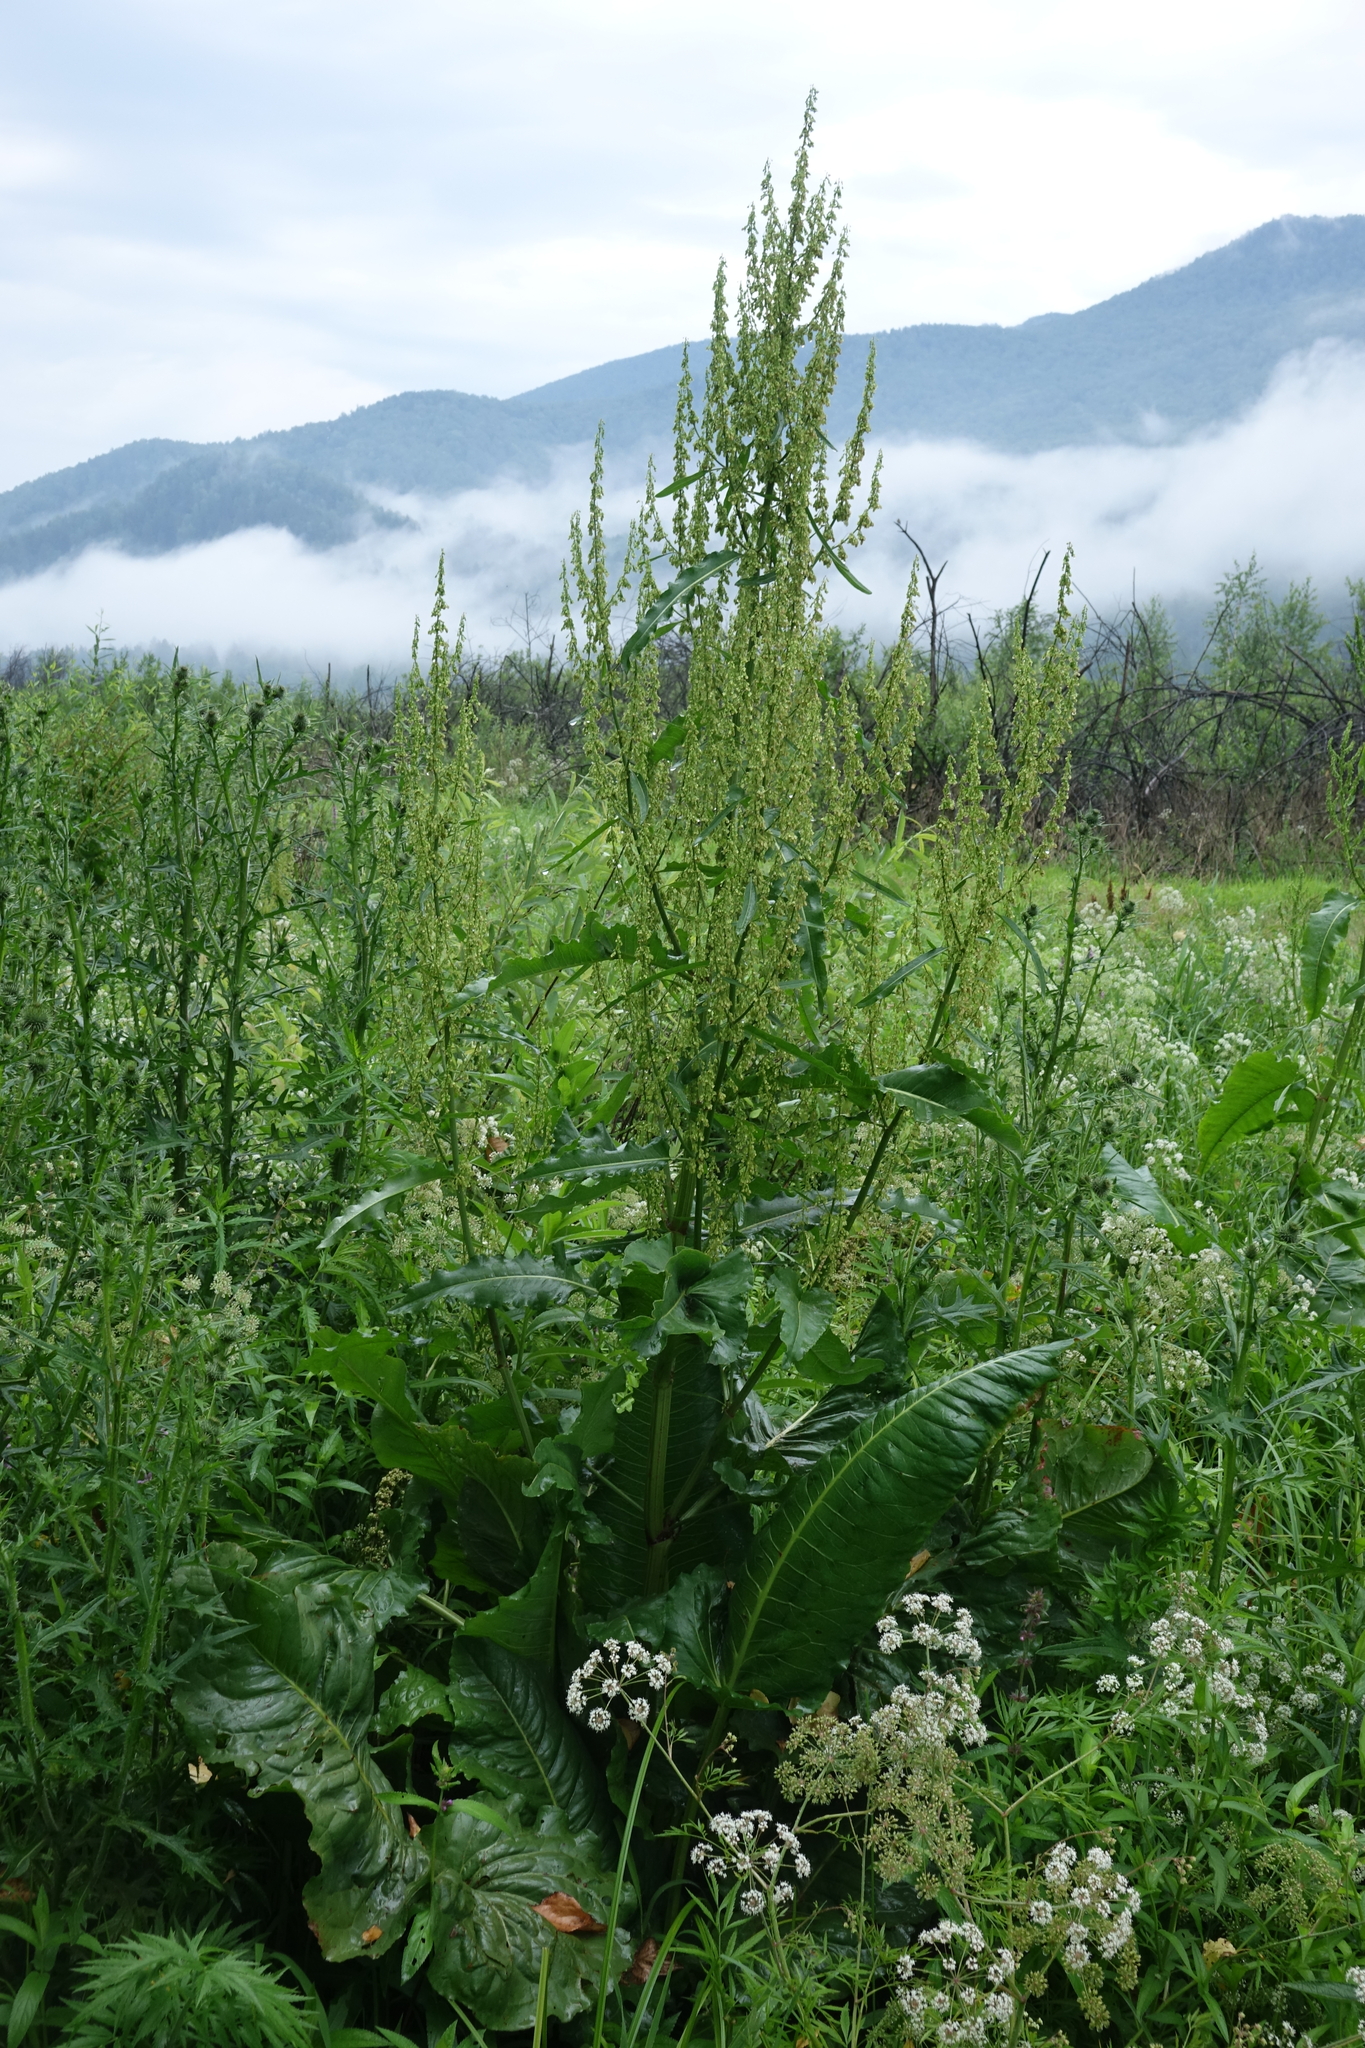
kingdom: Plantae
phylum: Tracheophyta
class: Magnoliopsida
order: Caryophyllales
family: Polygonaceae
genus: Rumex
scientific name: Rumex aquaticus
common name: Scottish dock
